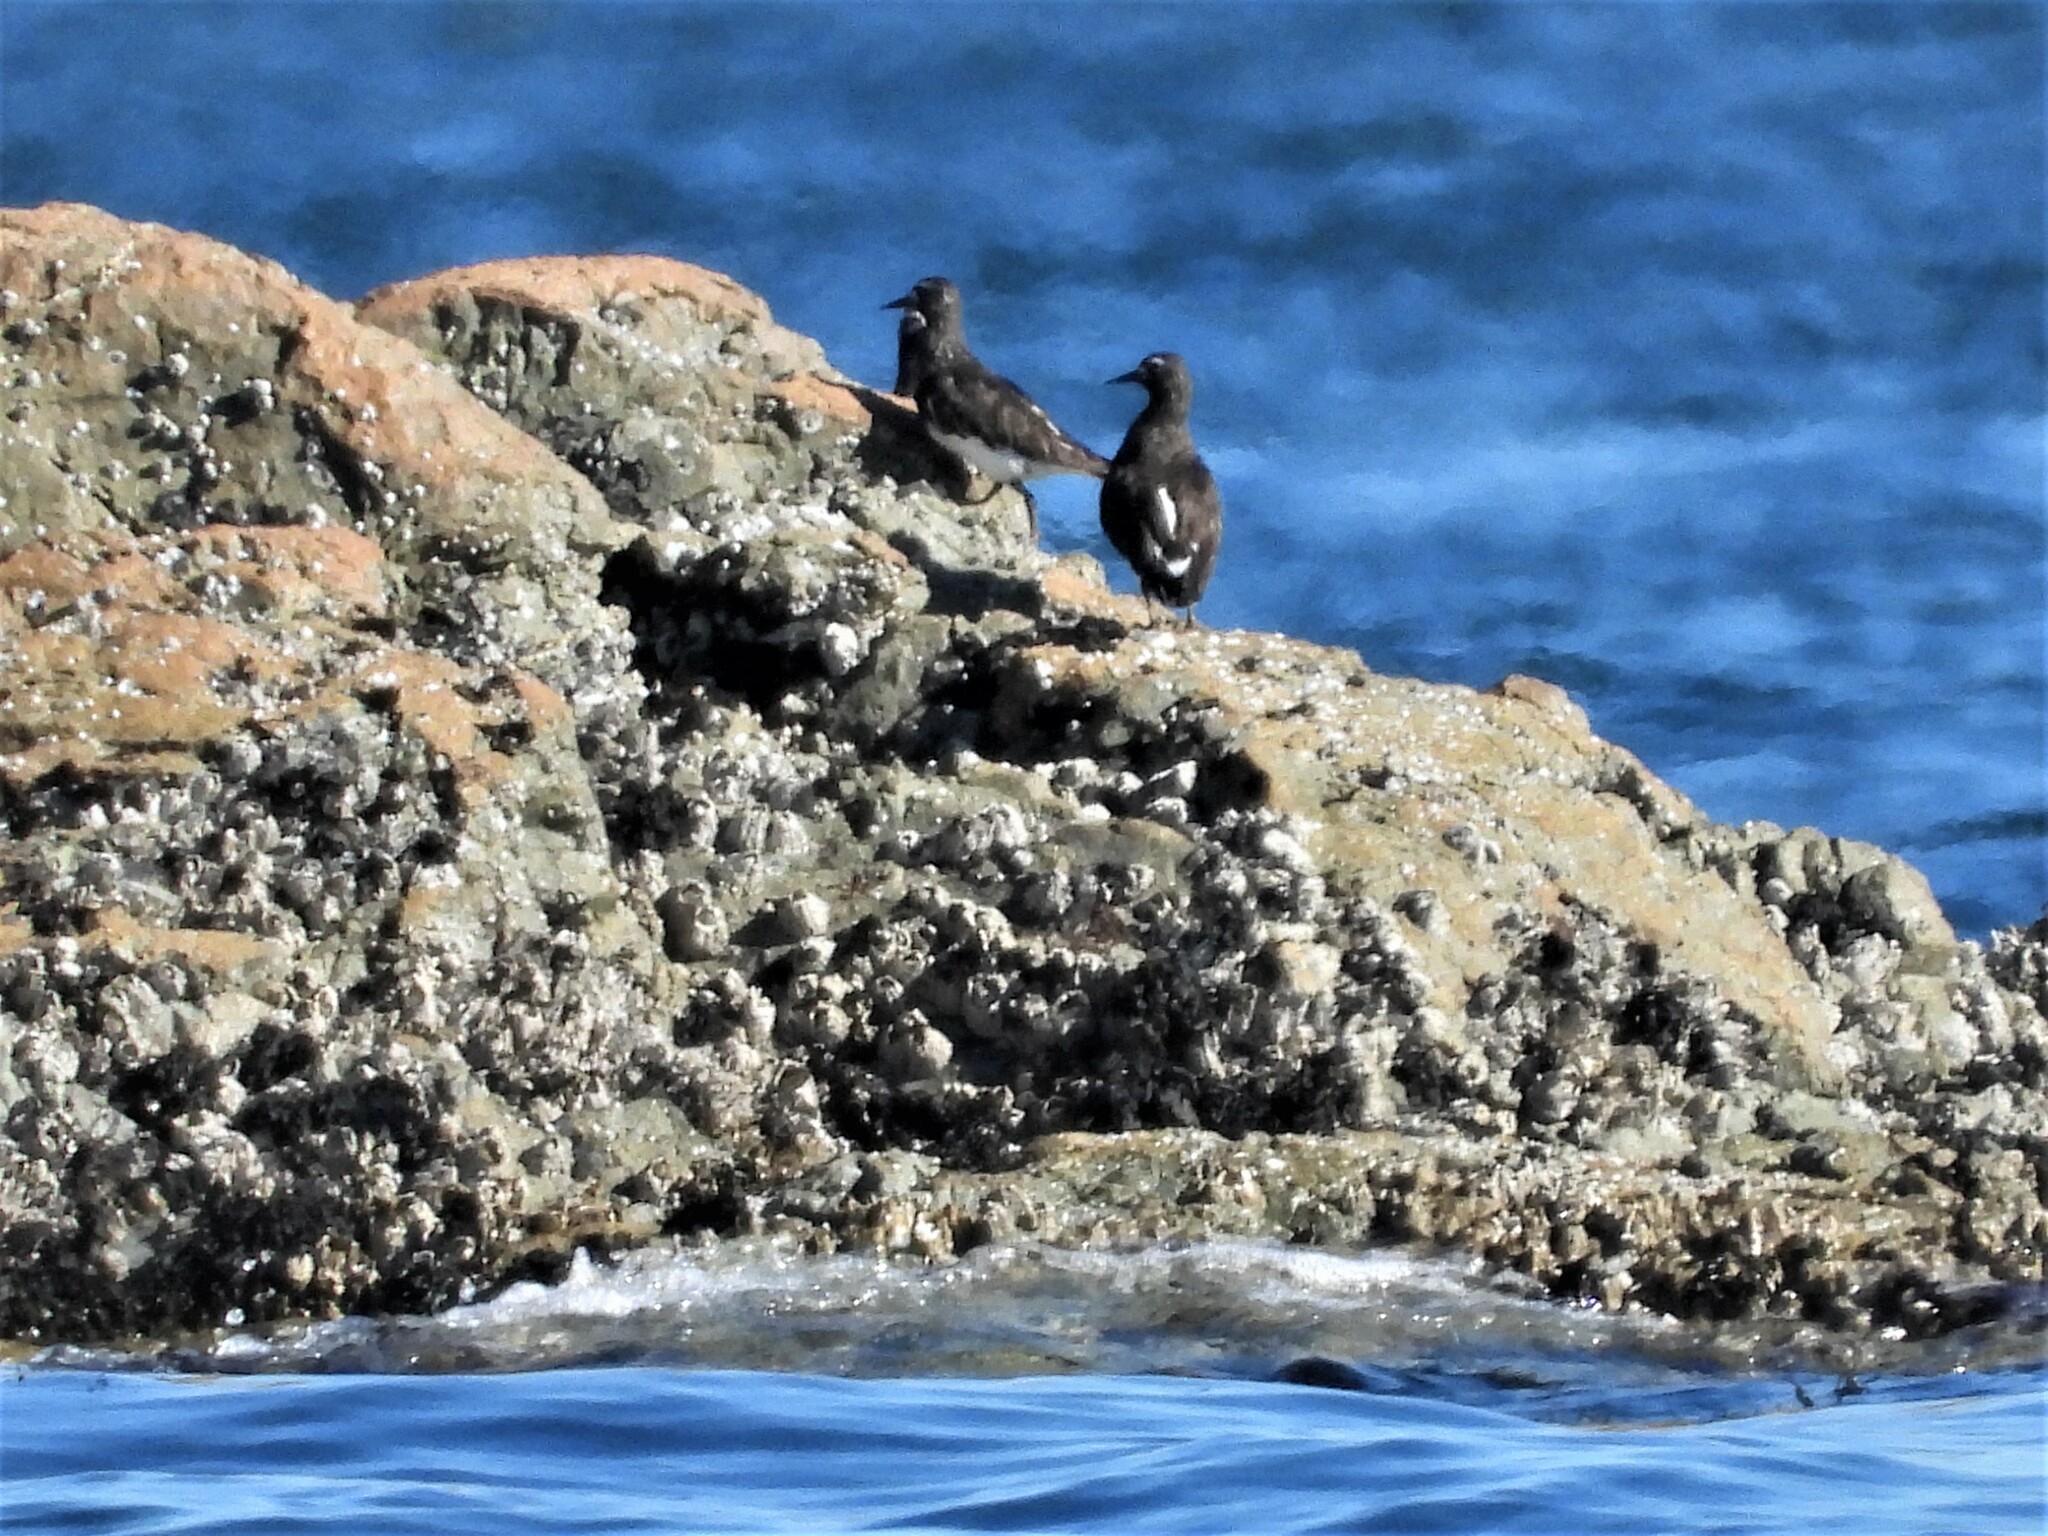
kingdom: Animalia
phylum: Chordata
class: Aves
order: Charadriiformes
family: Scolopacidae
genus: Arenaria
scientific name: Arenaria melanocephala
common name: Black turnstone
